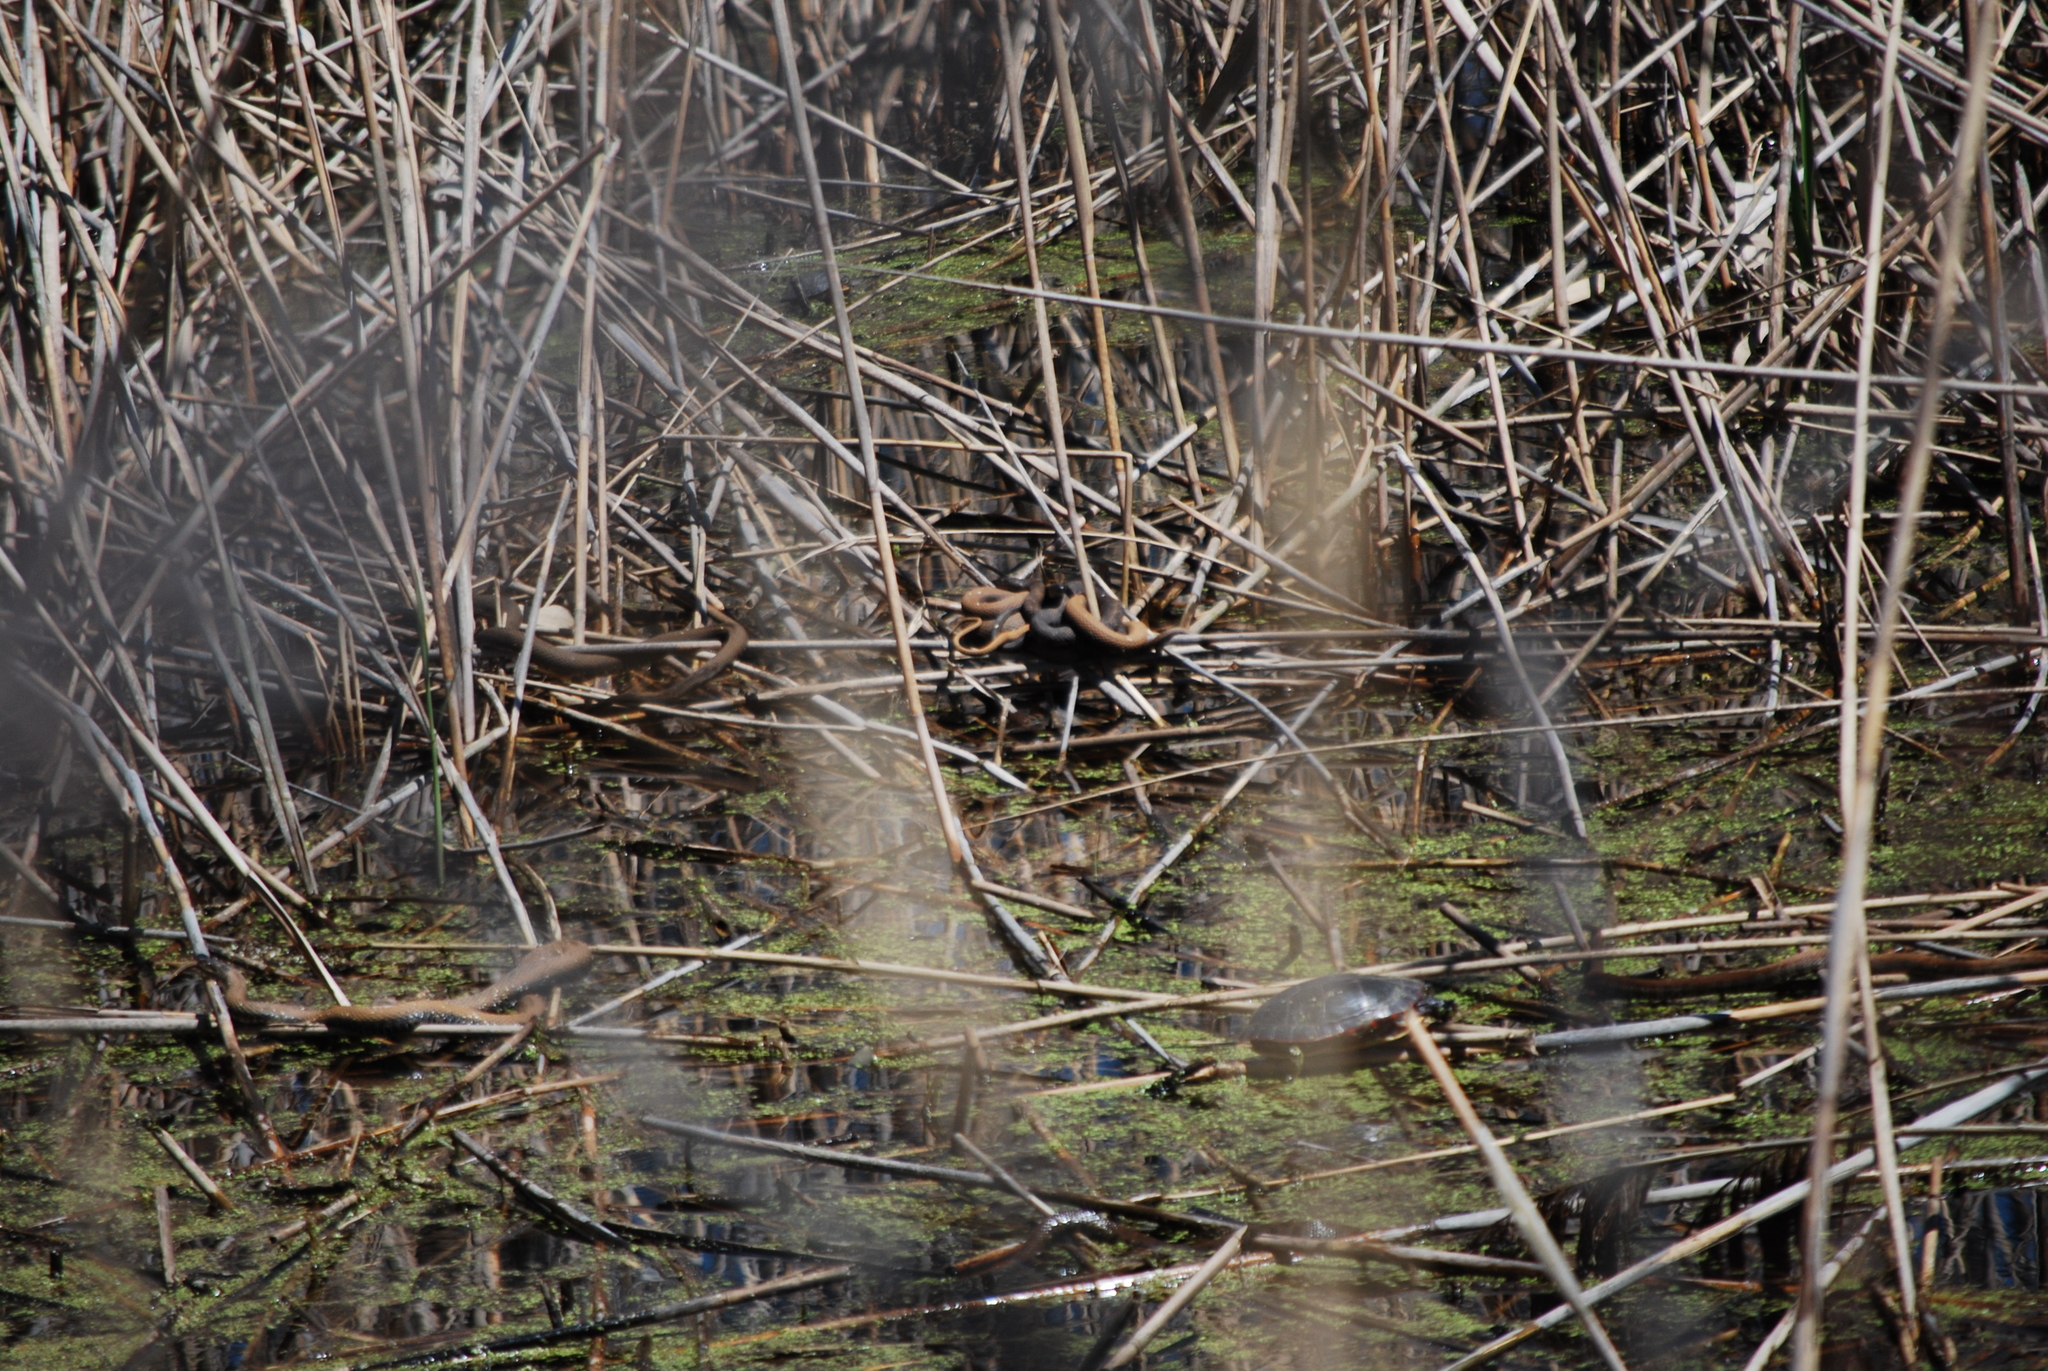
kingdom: Animalia
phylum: Chordata
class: Testudines
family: Emydidae
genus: Chrysemys
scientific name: Chrysemys picta
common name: Painted turtle
